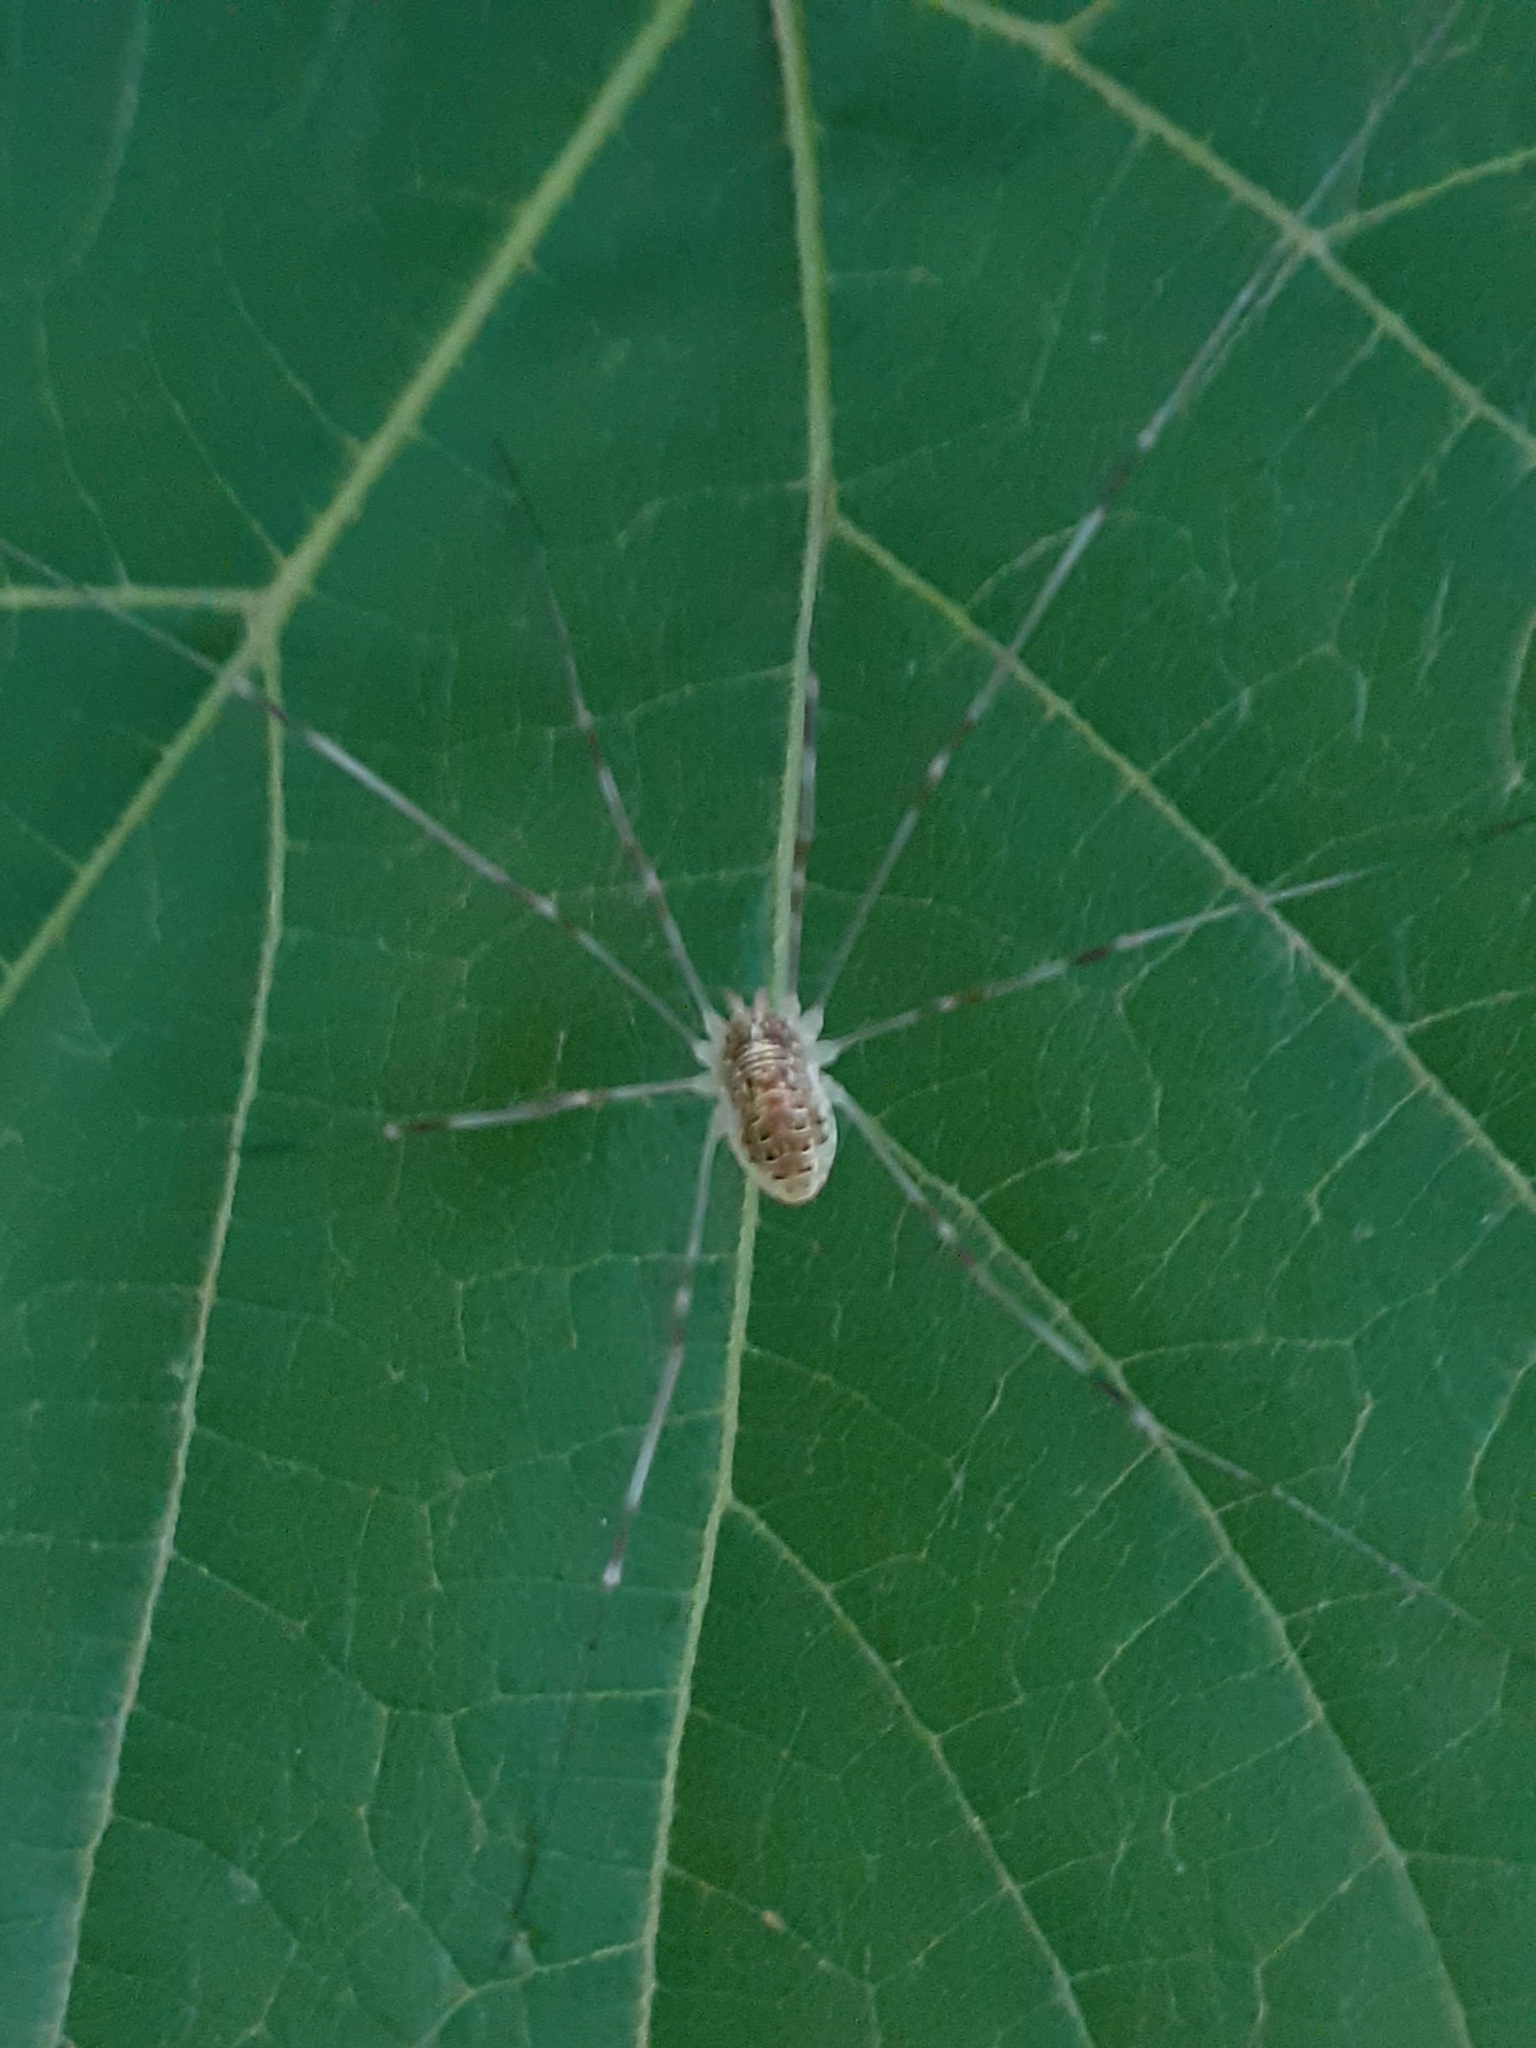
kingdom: Animalia
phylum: Arthropoda
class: Arachnida
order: Opiliones
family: Phalangiidae
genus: Opilio
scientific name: Opilio canestrinii
